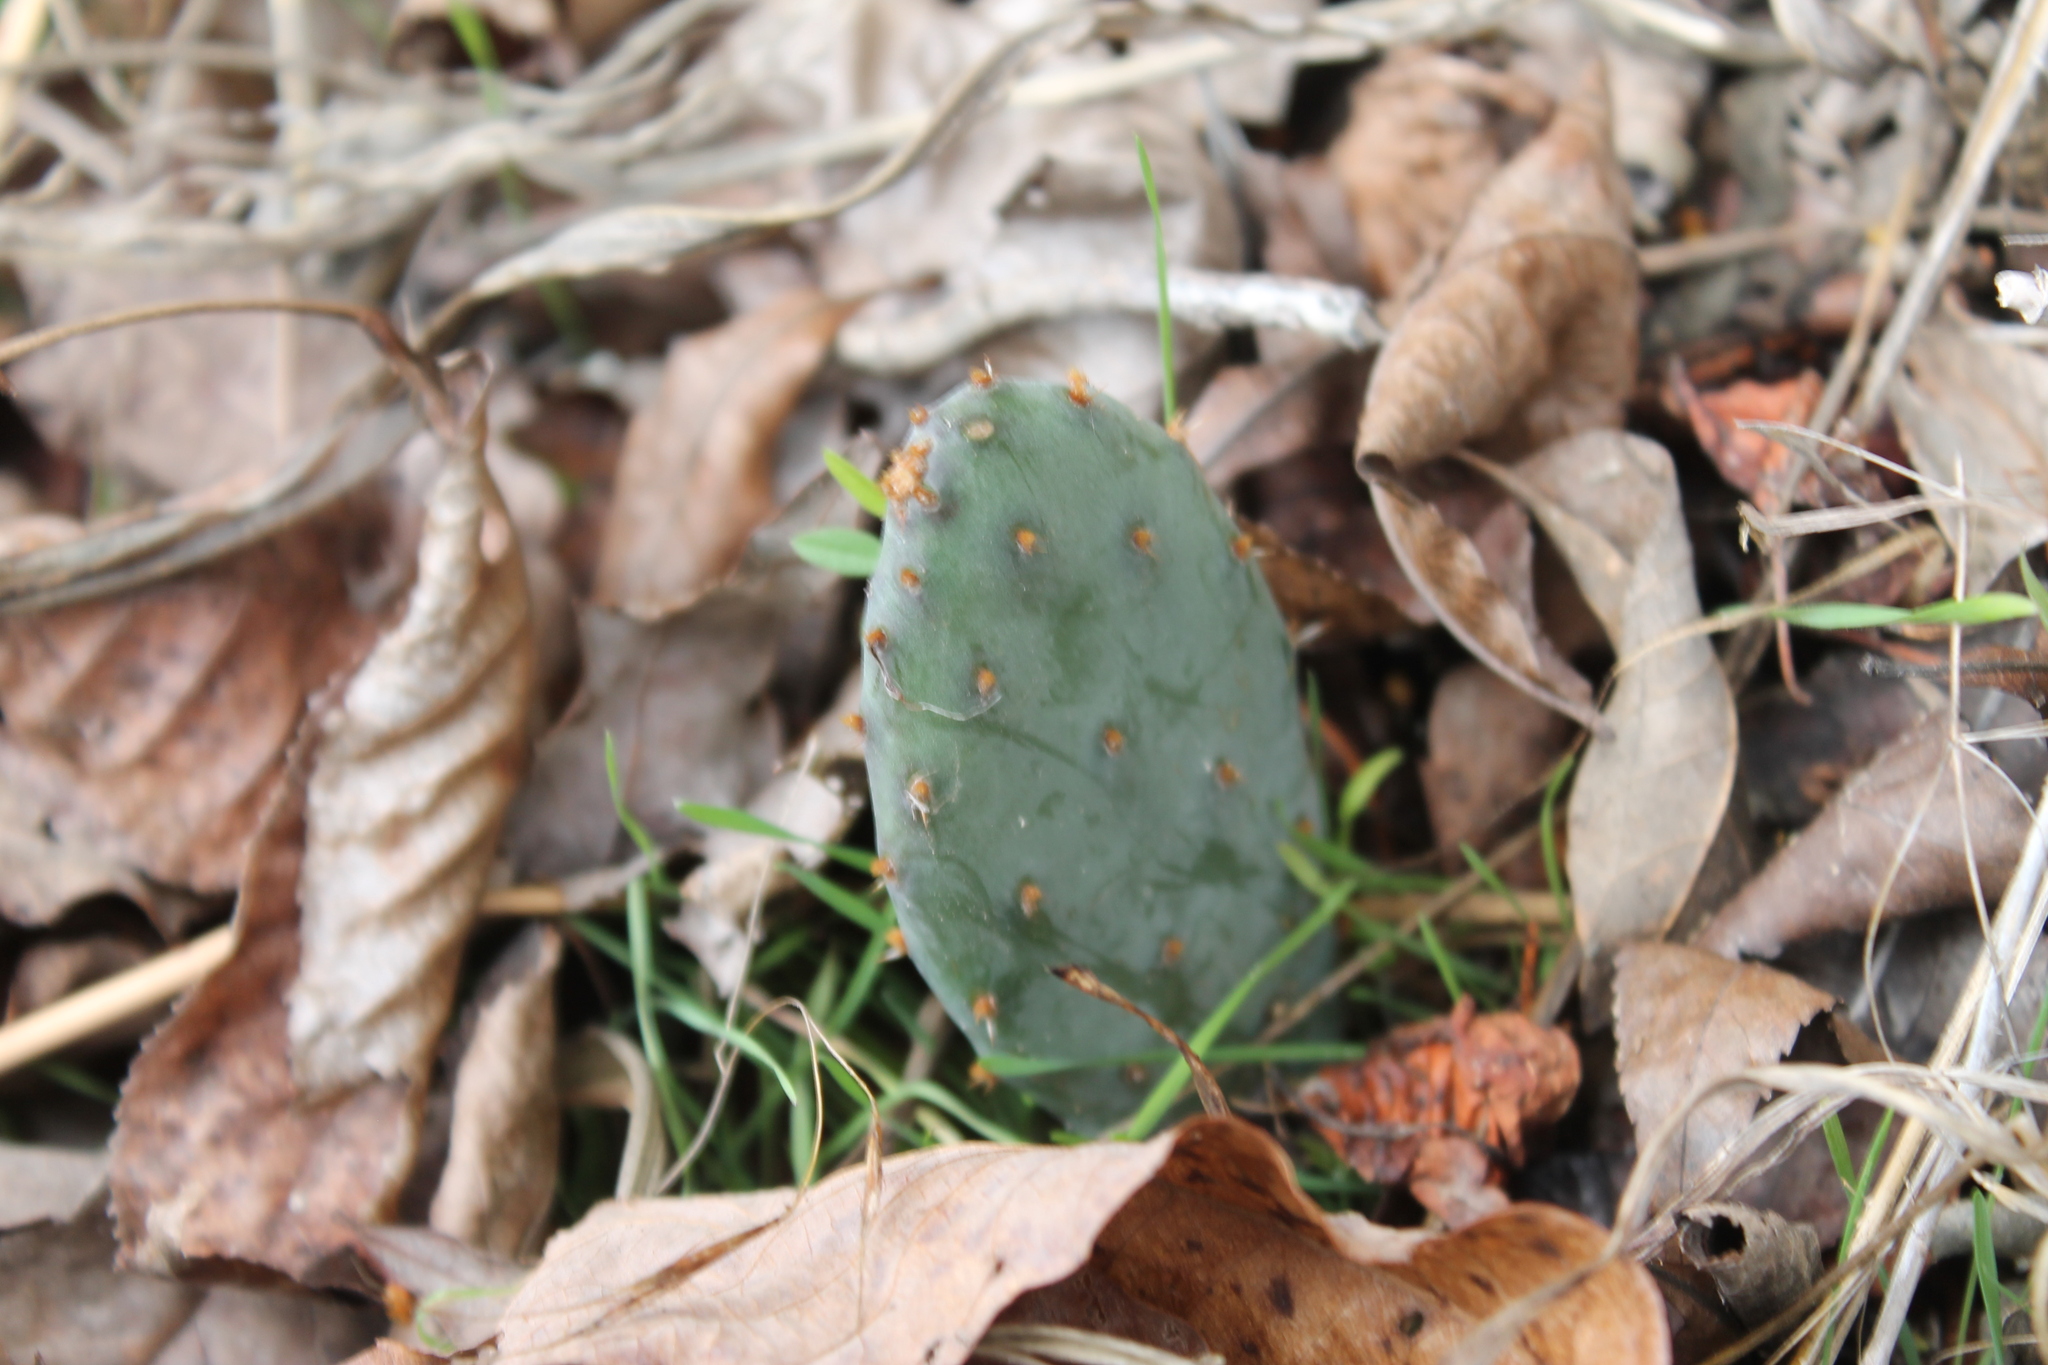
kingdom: Plantae
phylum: Tracheophyta
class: Magnoliopsida
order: Caryophyllales
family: Cactaceae
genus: Opuntia
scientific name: Opuntia humifusa
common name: Eastern prickly-pear
